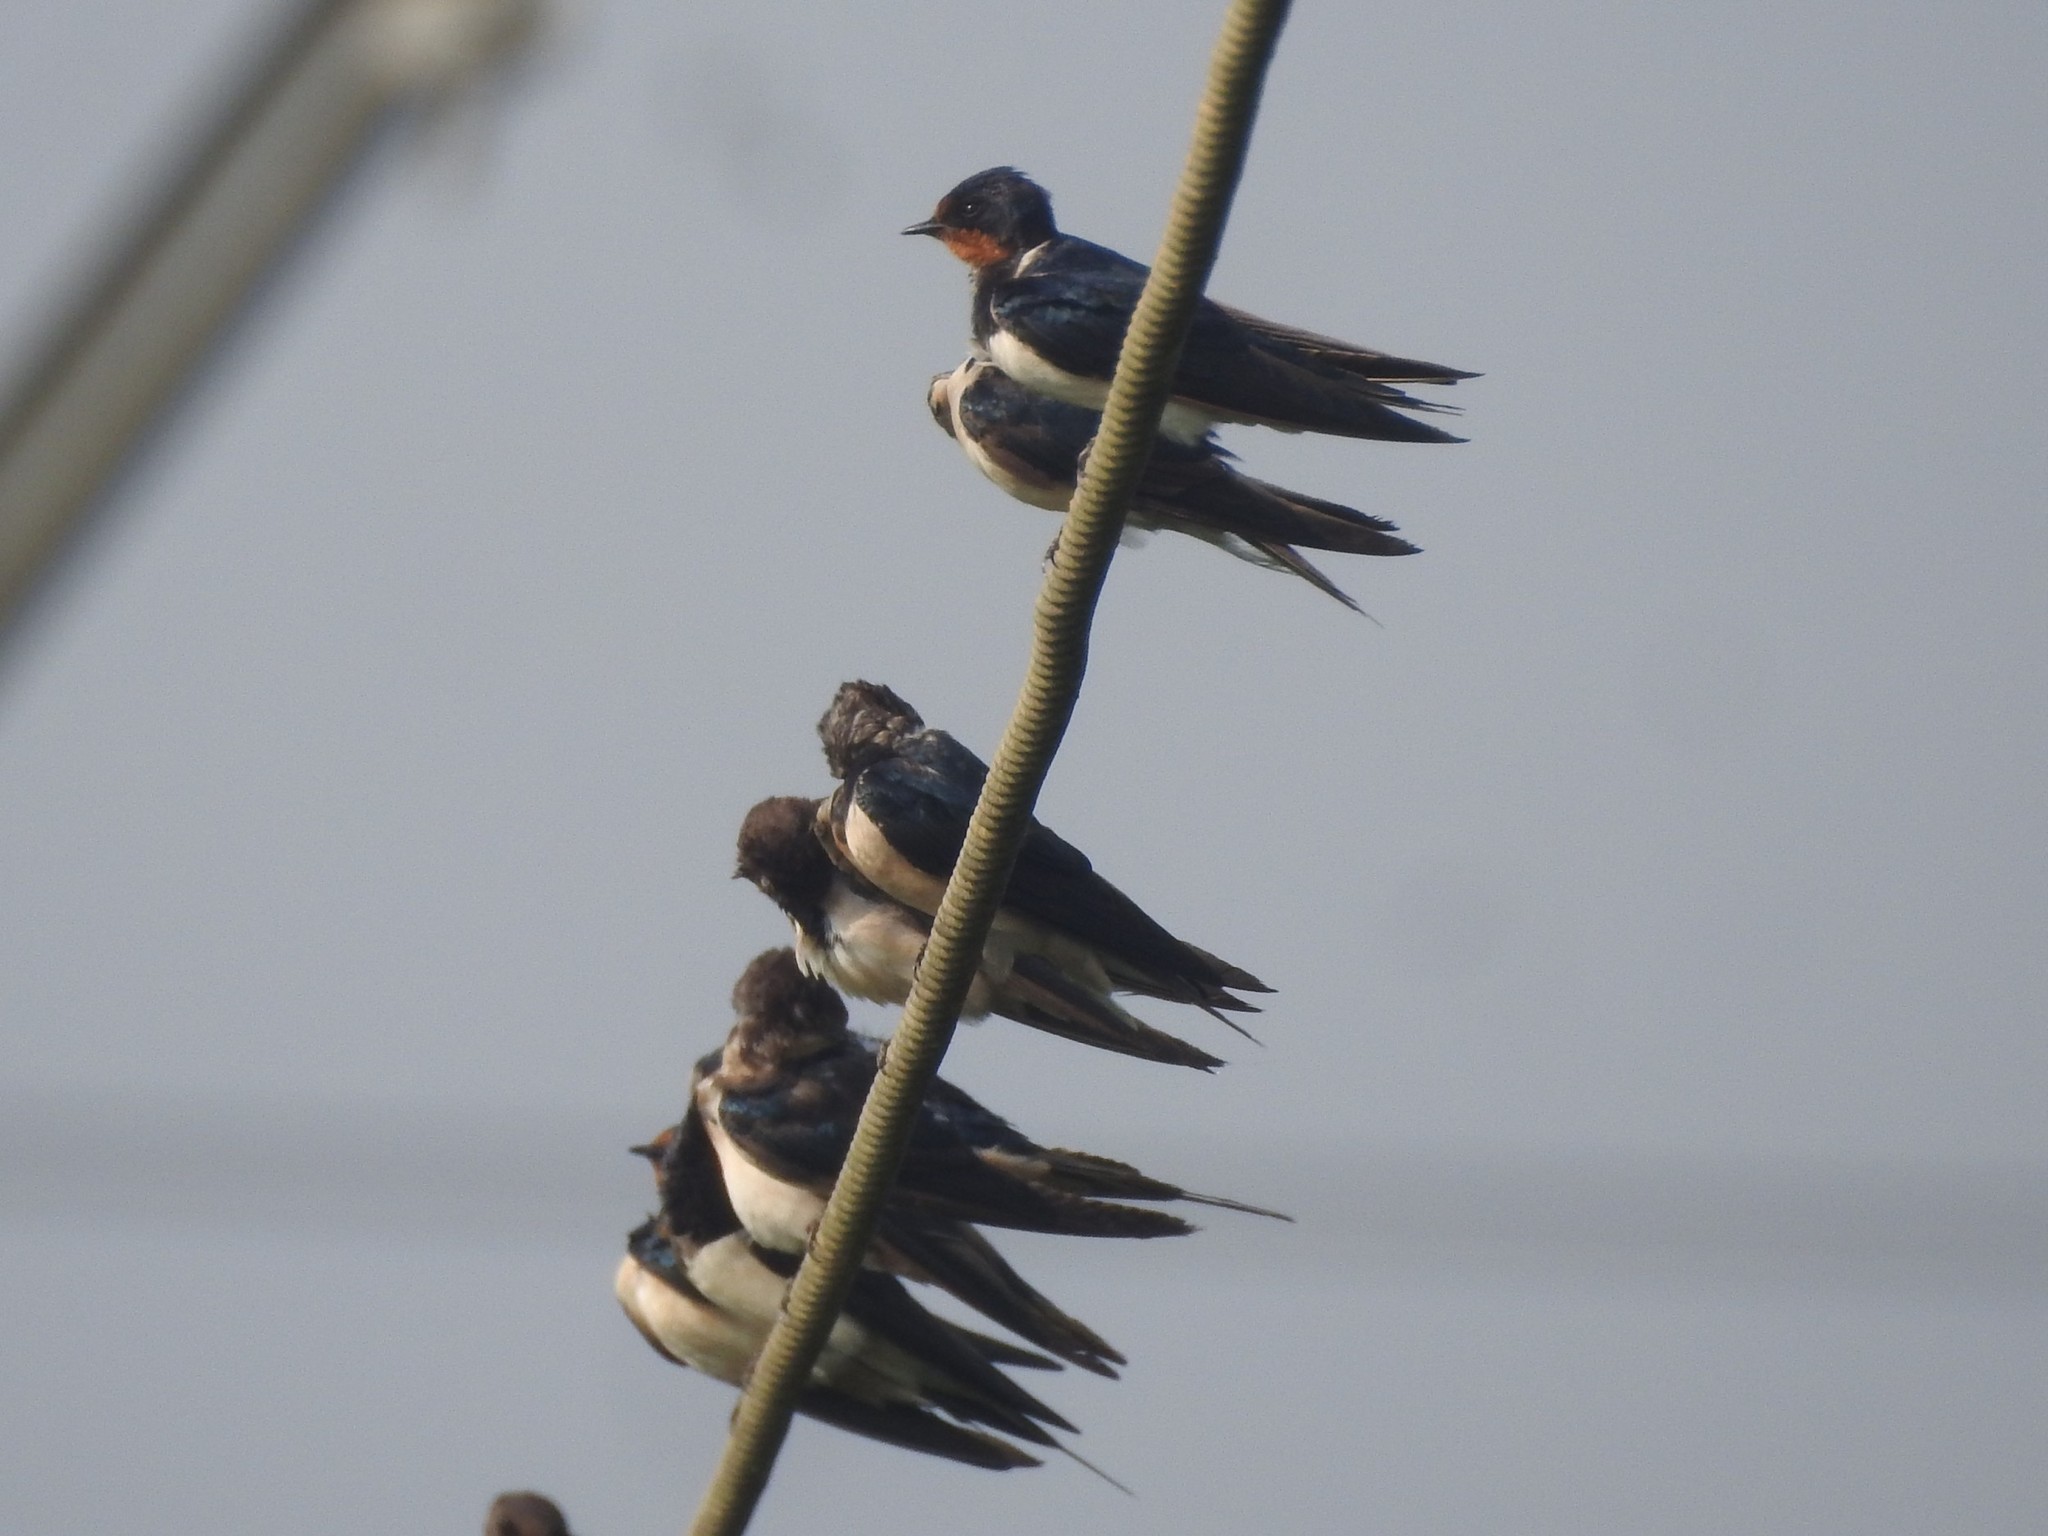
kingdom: Animalia
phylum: Chordata
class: Aves
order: Passeriformes
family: Hirundinidae
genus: Hirundo
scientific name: Hirundo rustica
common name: Barn swallow
